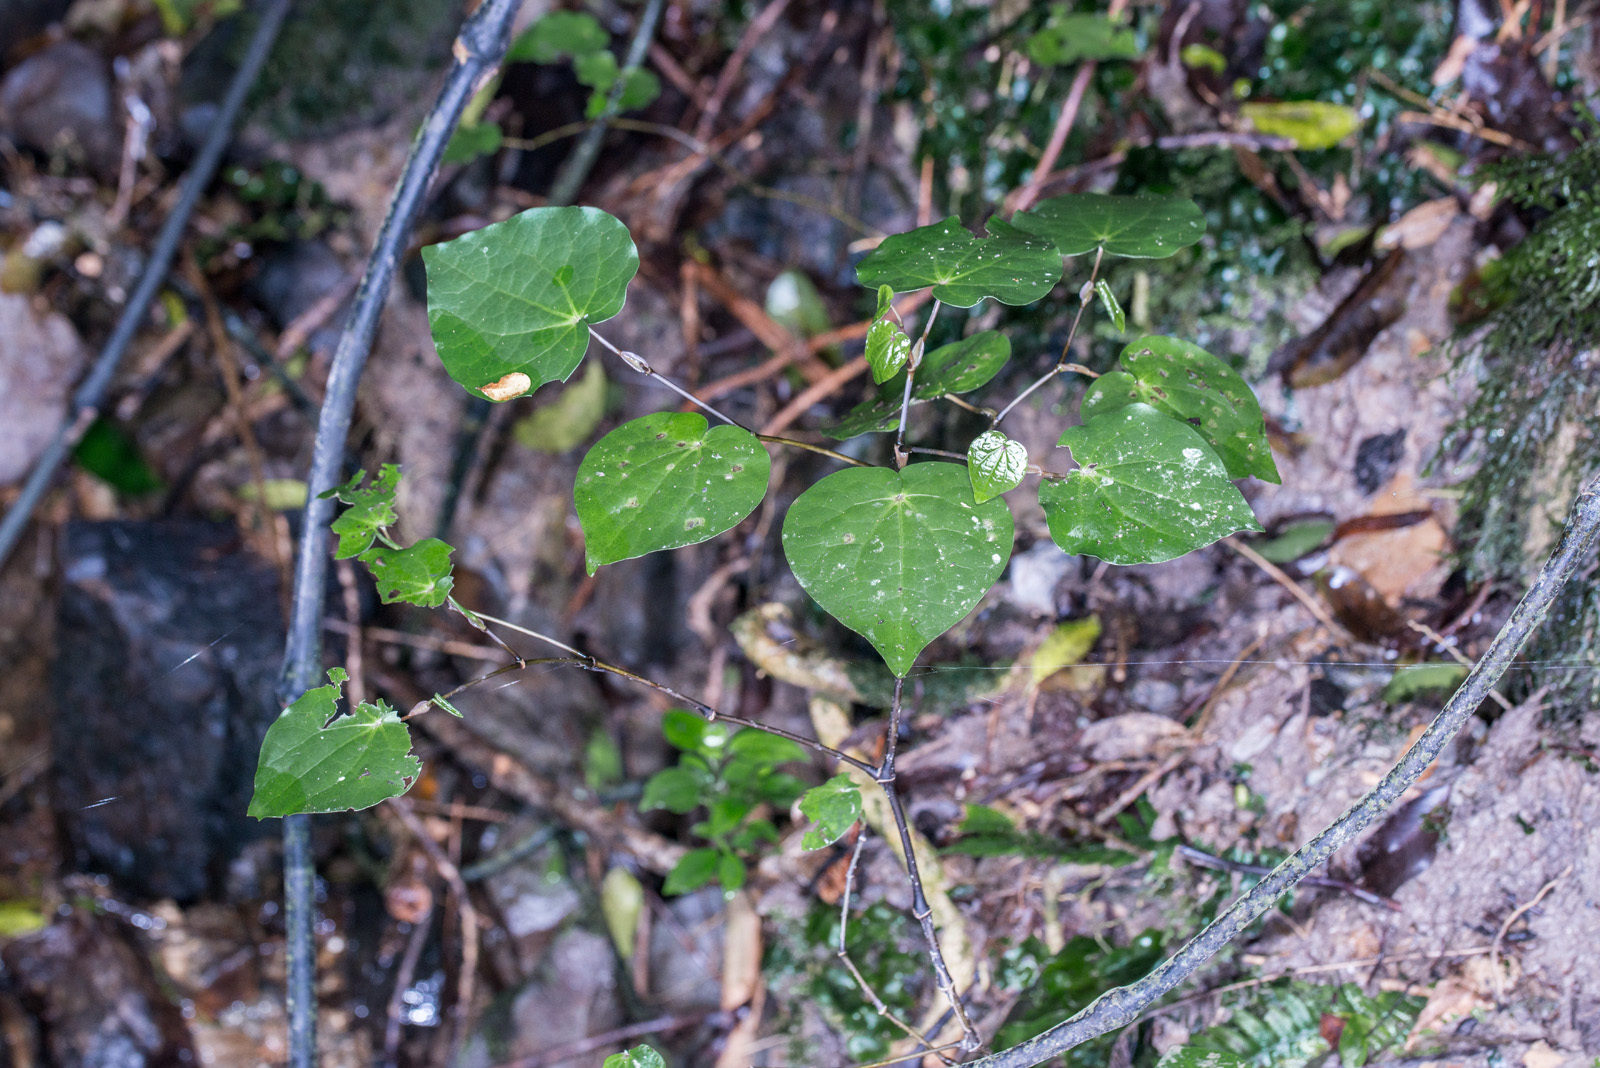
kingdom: Plantae
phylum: Tracheophyta
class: Magnoliopsida
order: Piperales
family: Piperaceae
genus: Macropiper
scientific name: Macropiper excelsum
